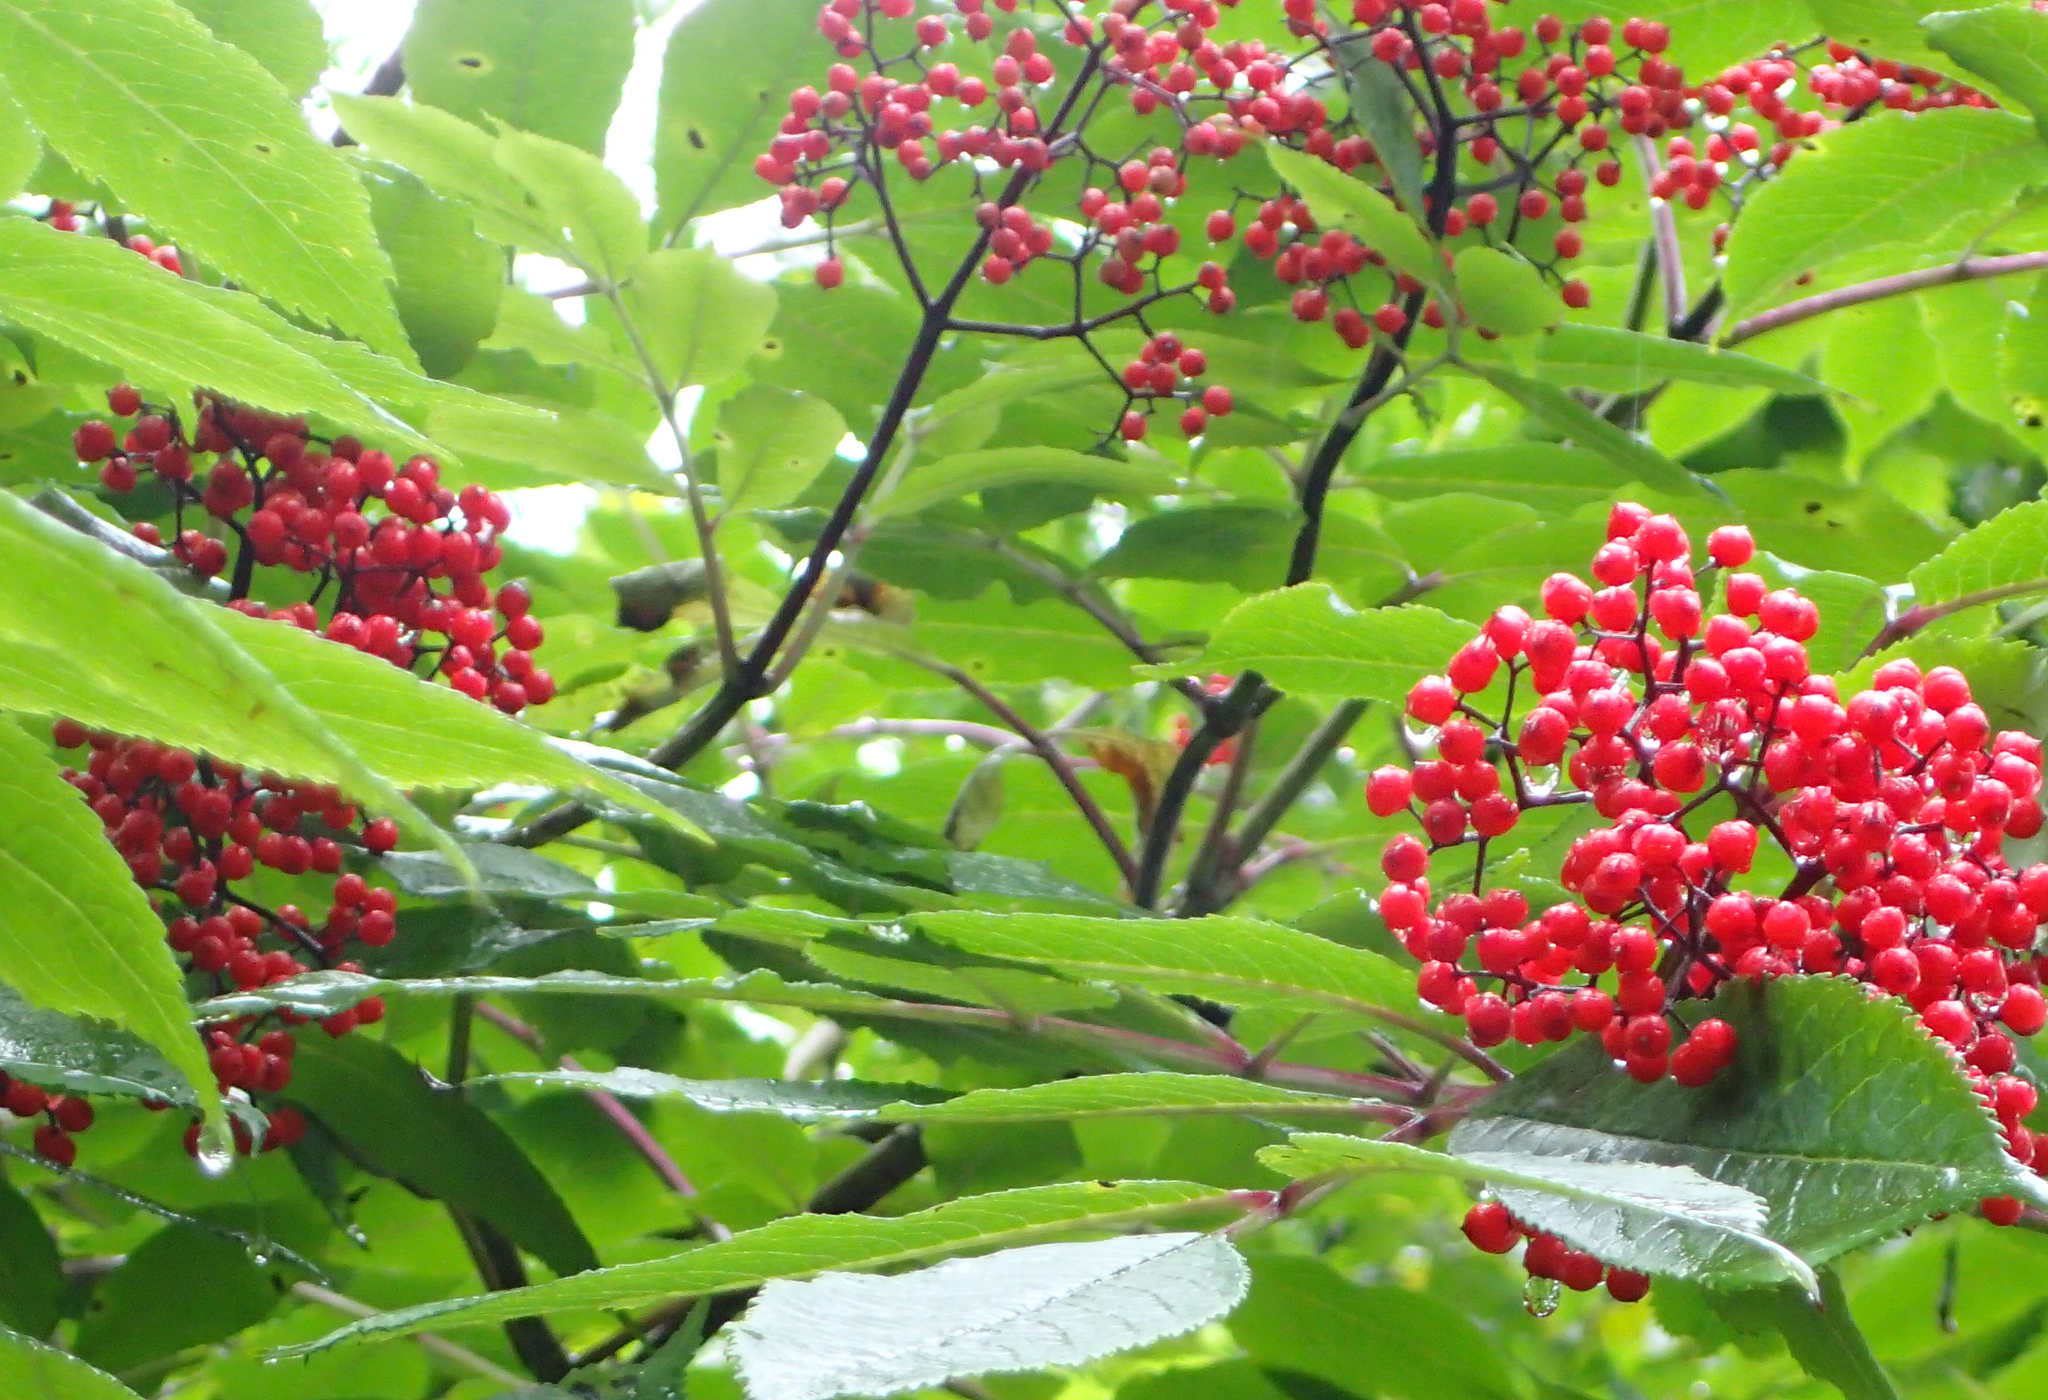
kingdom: Plantae
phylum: Tracheophyta
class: Magnoliopsida
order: Dipsacales
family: Viburnaceae
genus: Sambucus
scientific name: Sambucus racemosa
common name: Red-berried elder
